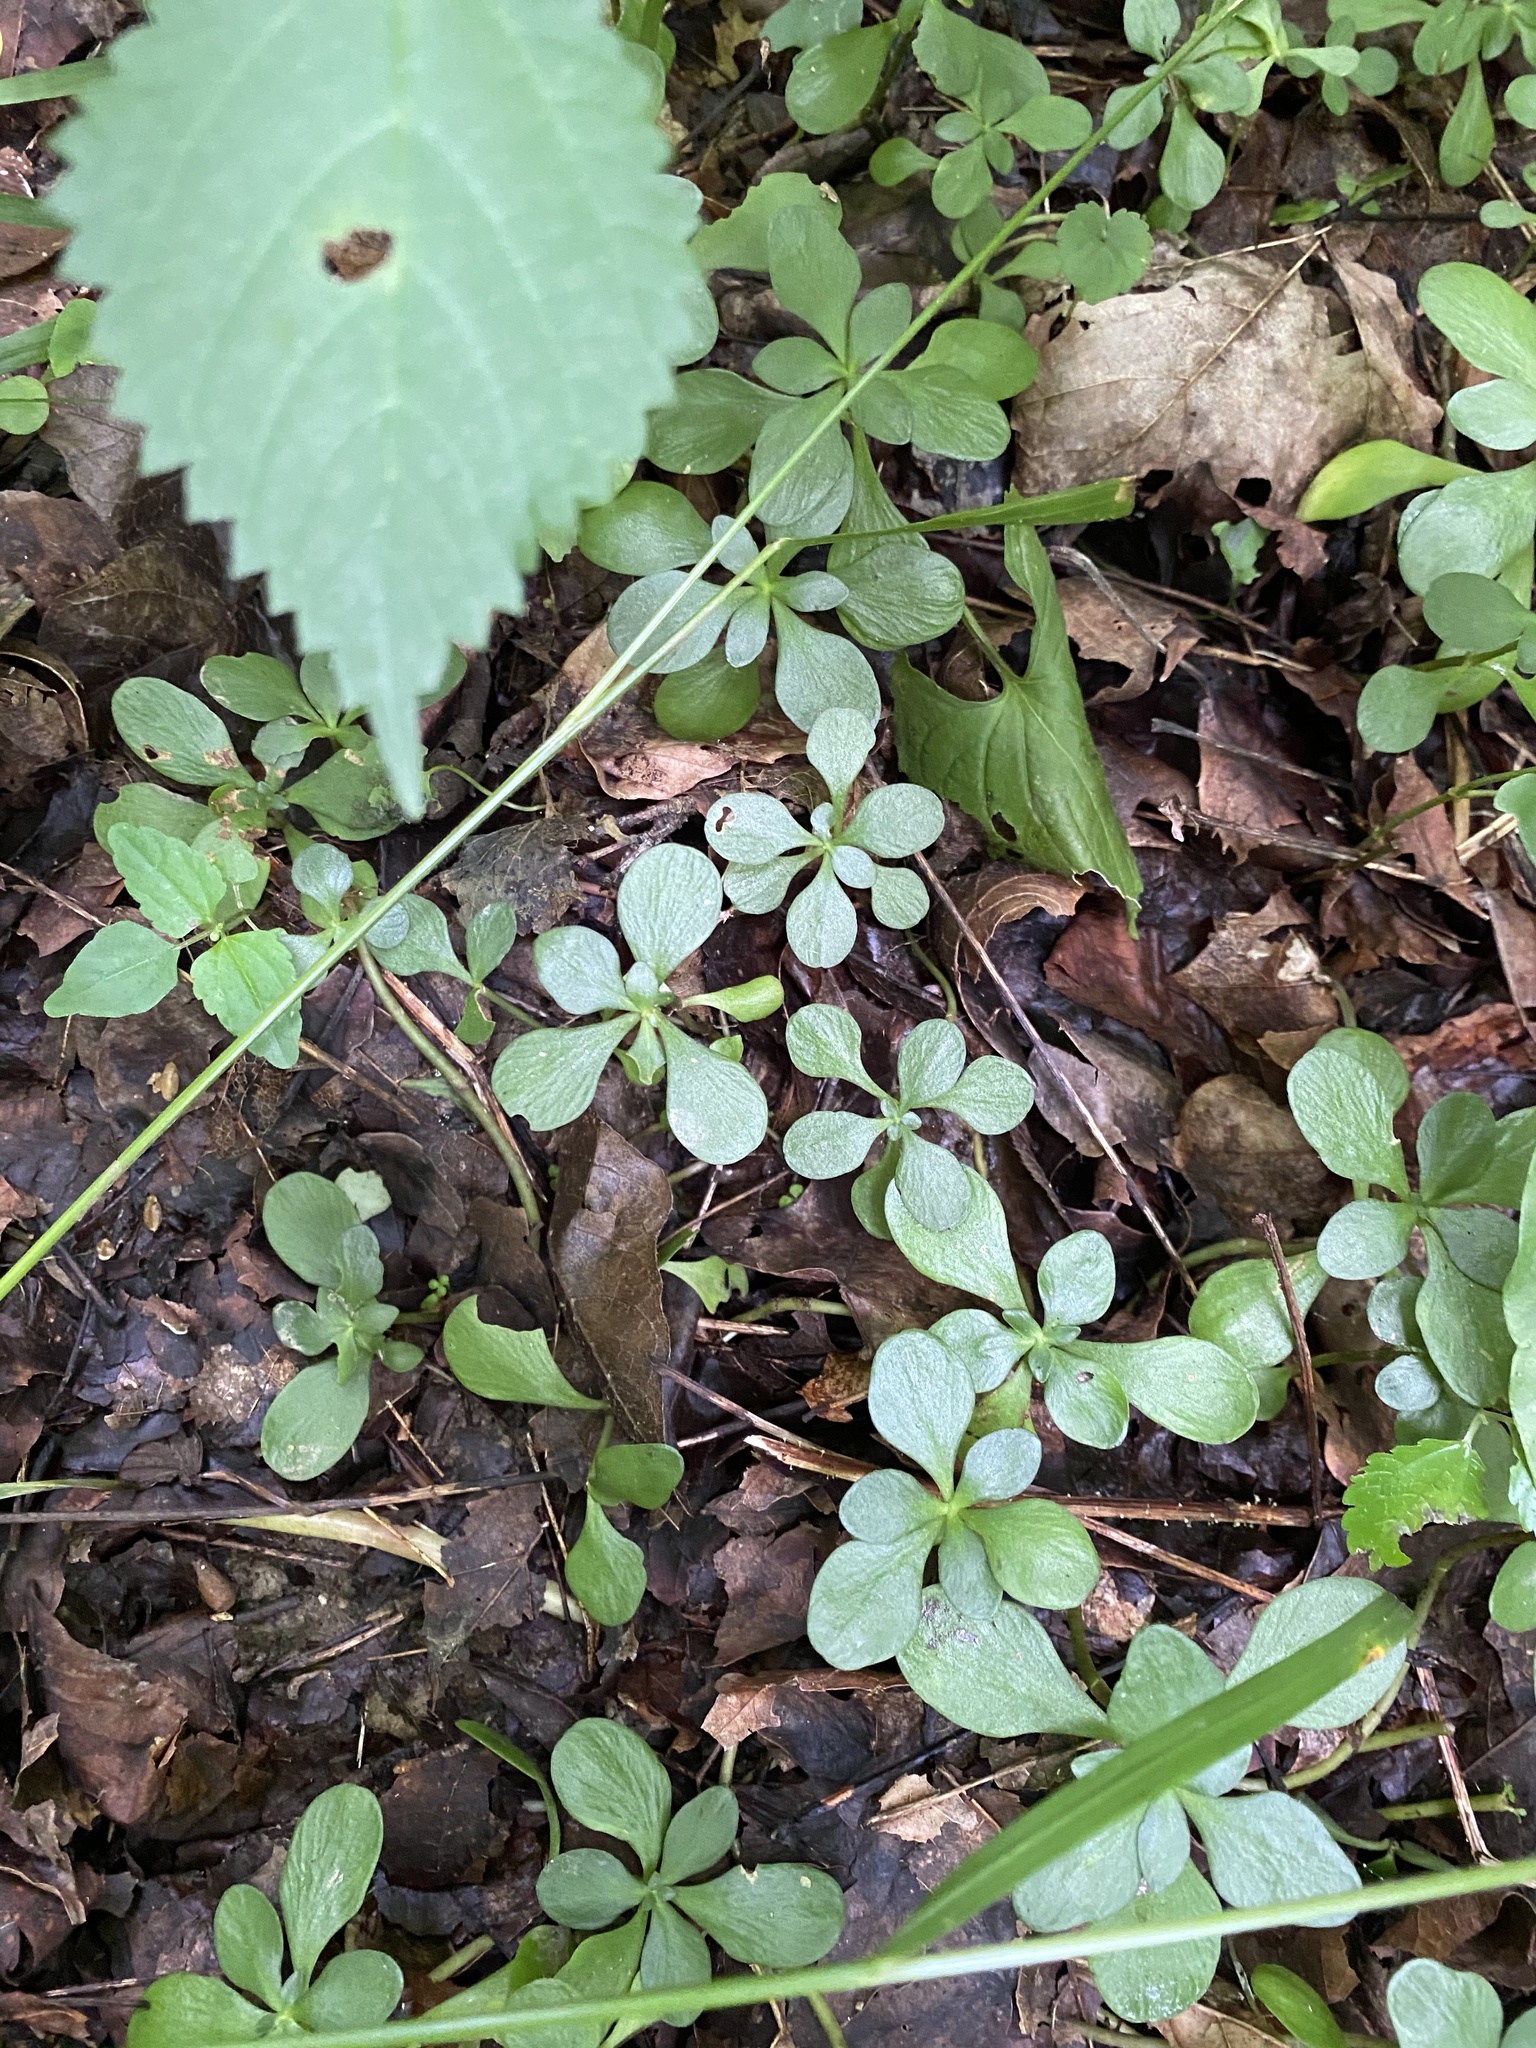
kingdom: Plantae
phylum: Tracheophyta
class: Magnoliopsida
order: Saxifragales
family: Crassulaceae
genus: Sedum
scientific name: Sedum ternatum
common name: Wild stonecrop
